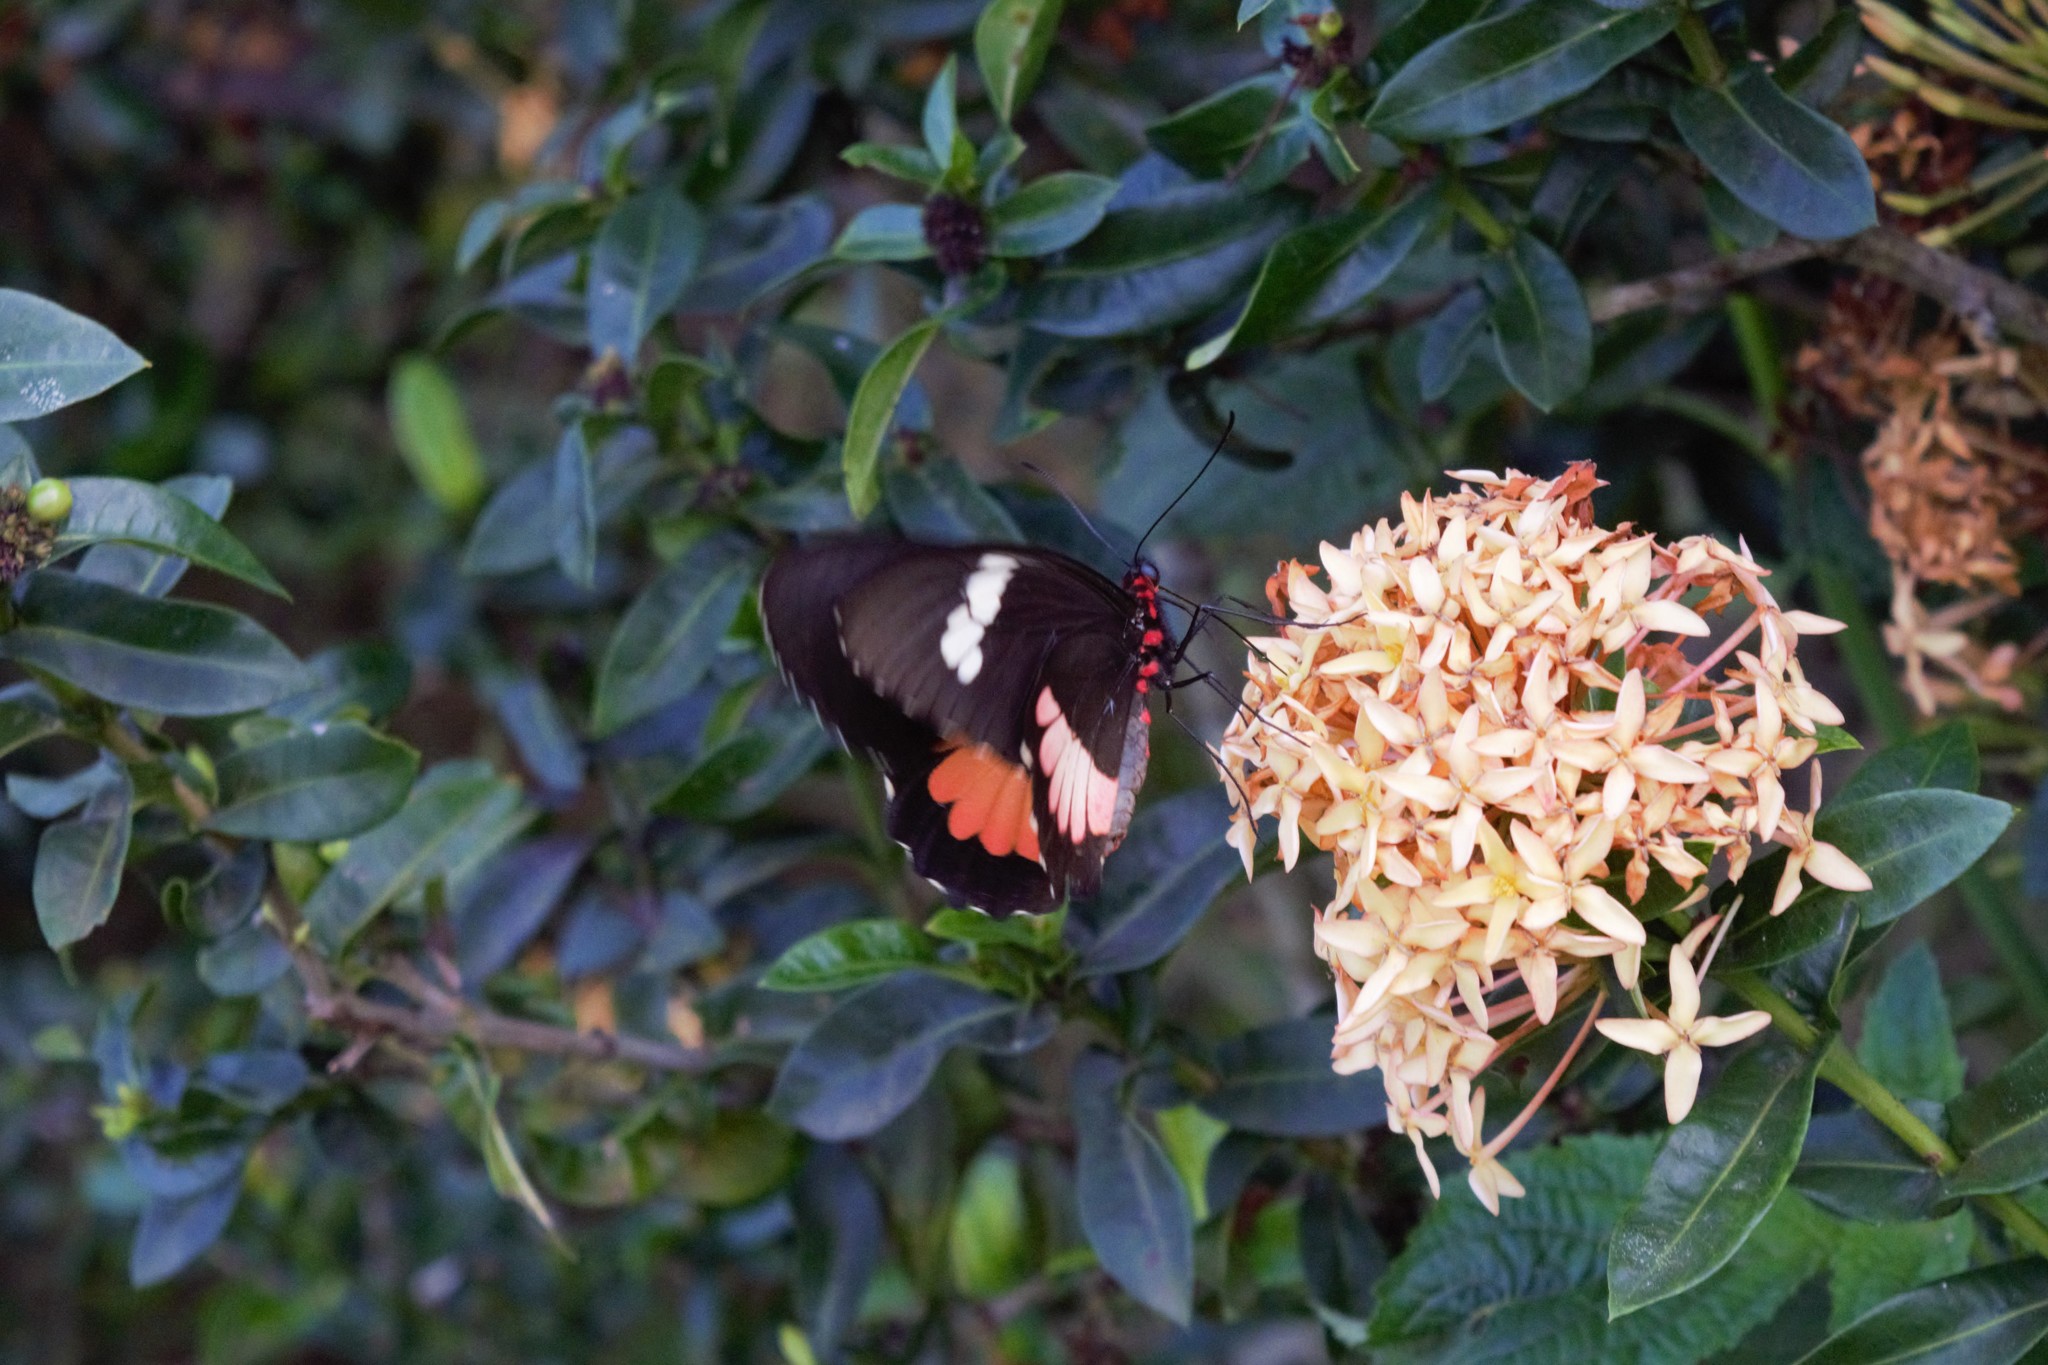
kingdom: Animalia
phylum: Arthropoda
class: Insecta
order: Lepidoptera
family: Papilionidae
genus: Parides
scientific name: Parides iphidamas
